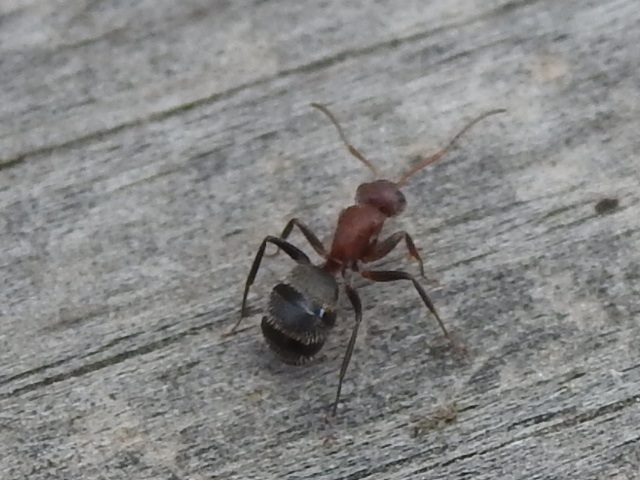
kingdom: Animalia
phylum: Arthropoda
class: Insecta
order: Hymenoptera
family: Formicidae
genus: Camponotus
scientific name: Camponotus planatus
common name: Compact carpenter ant
